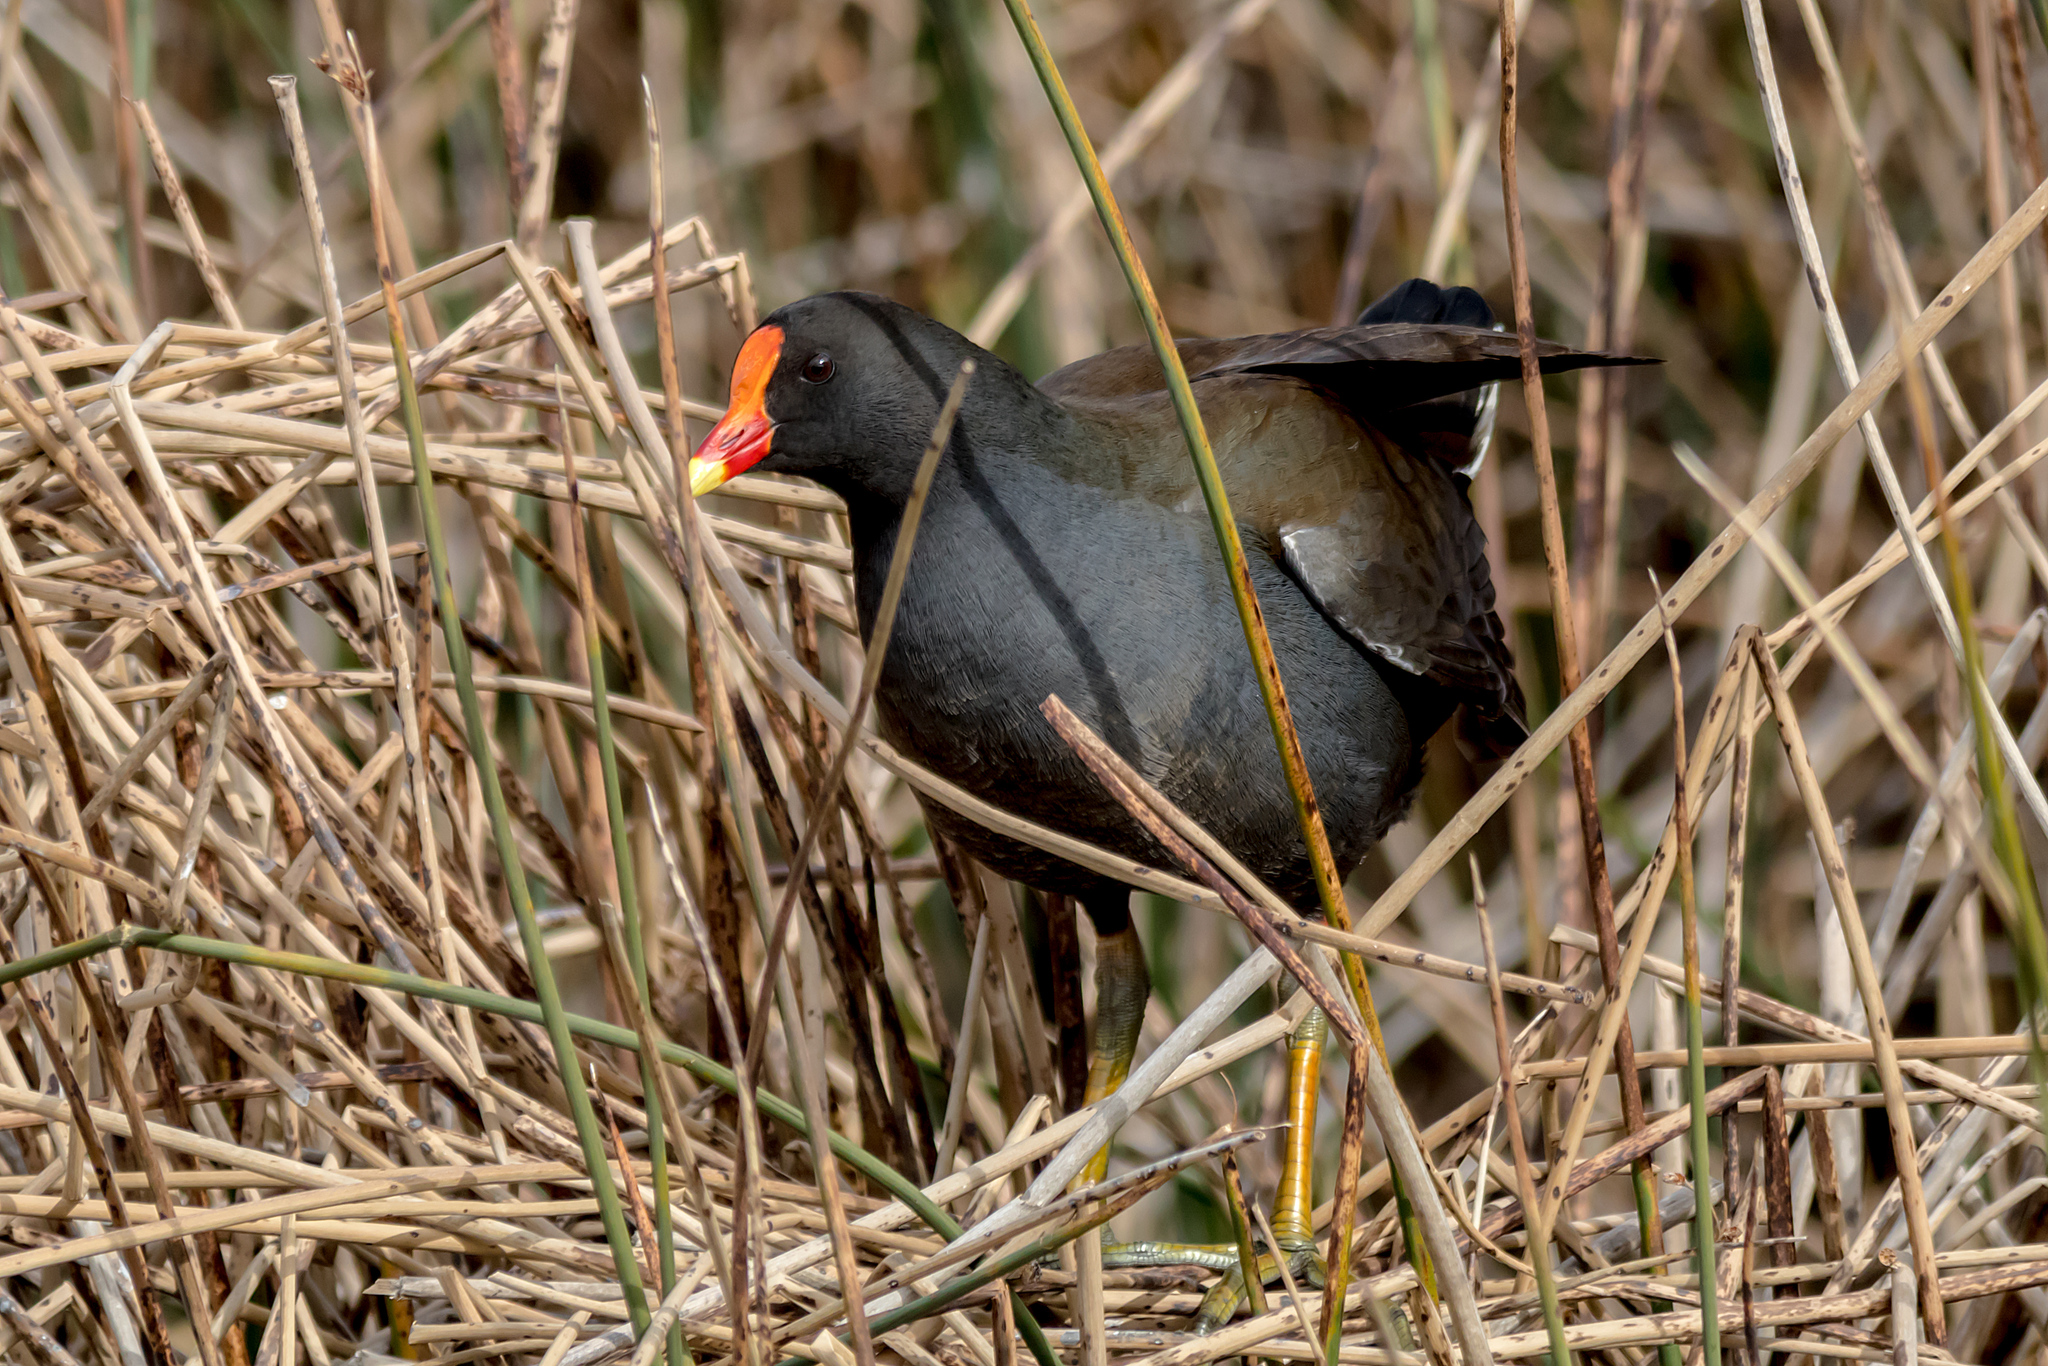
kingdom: Animalia
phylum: Chordata
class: Aves
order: Gruiformes
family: Rallidae
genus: Gallinula
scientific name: Gallinula tenebrosa
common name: Dusky moorhen
